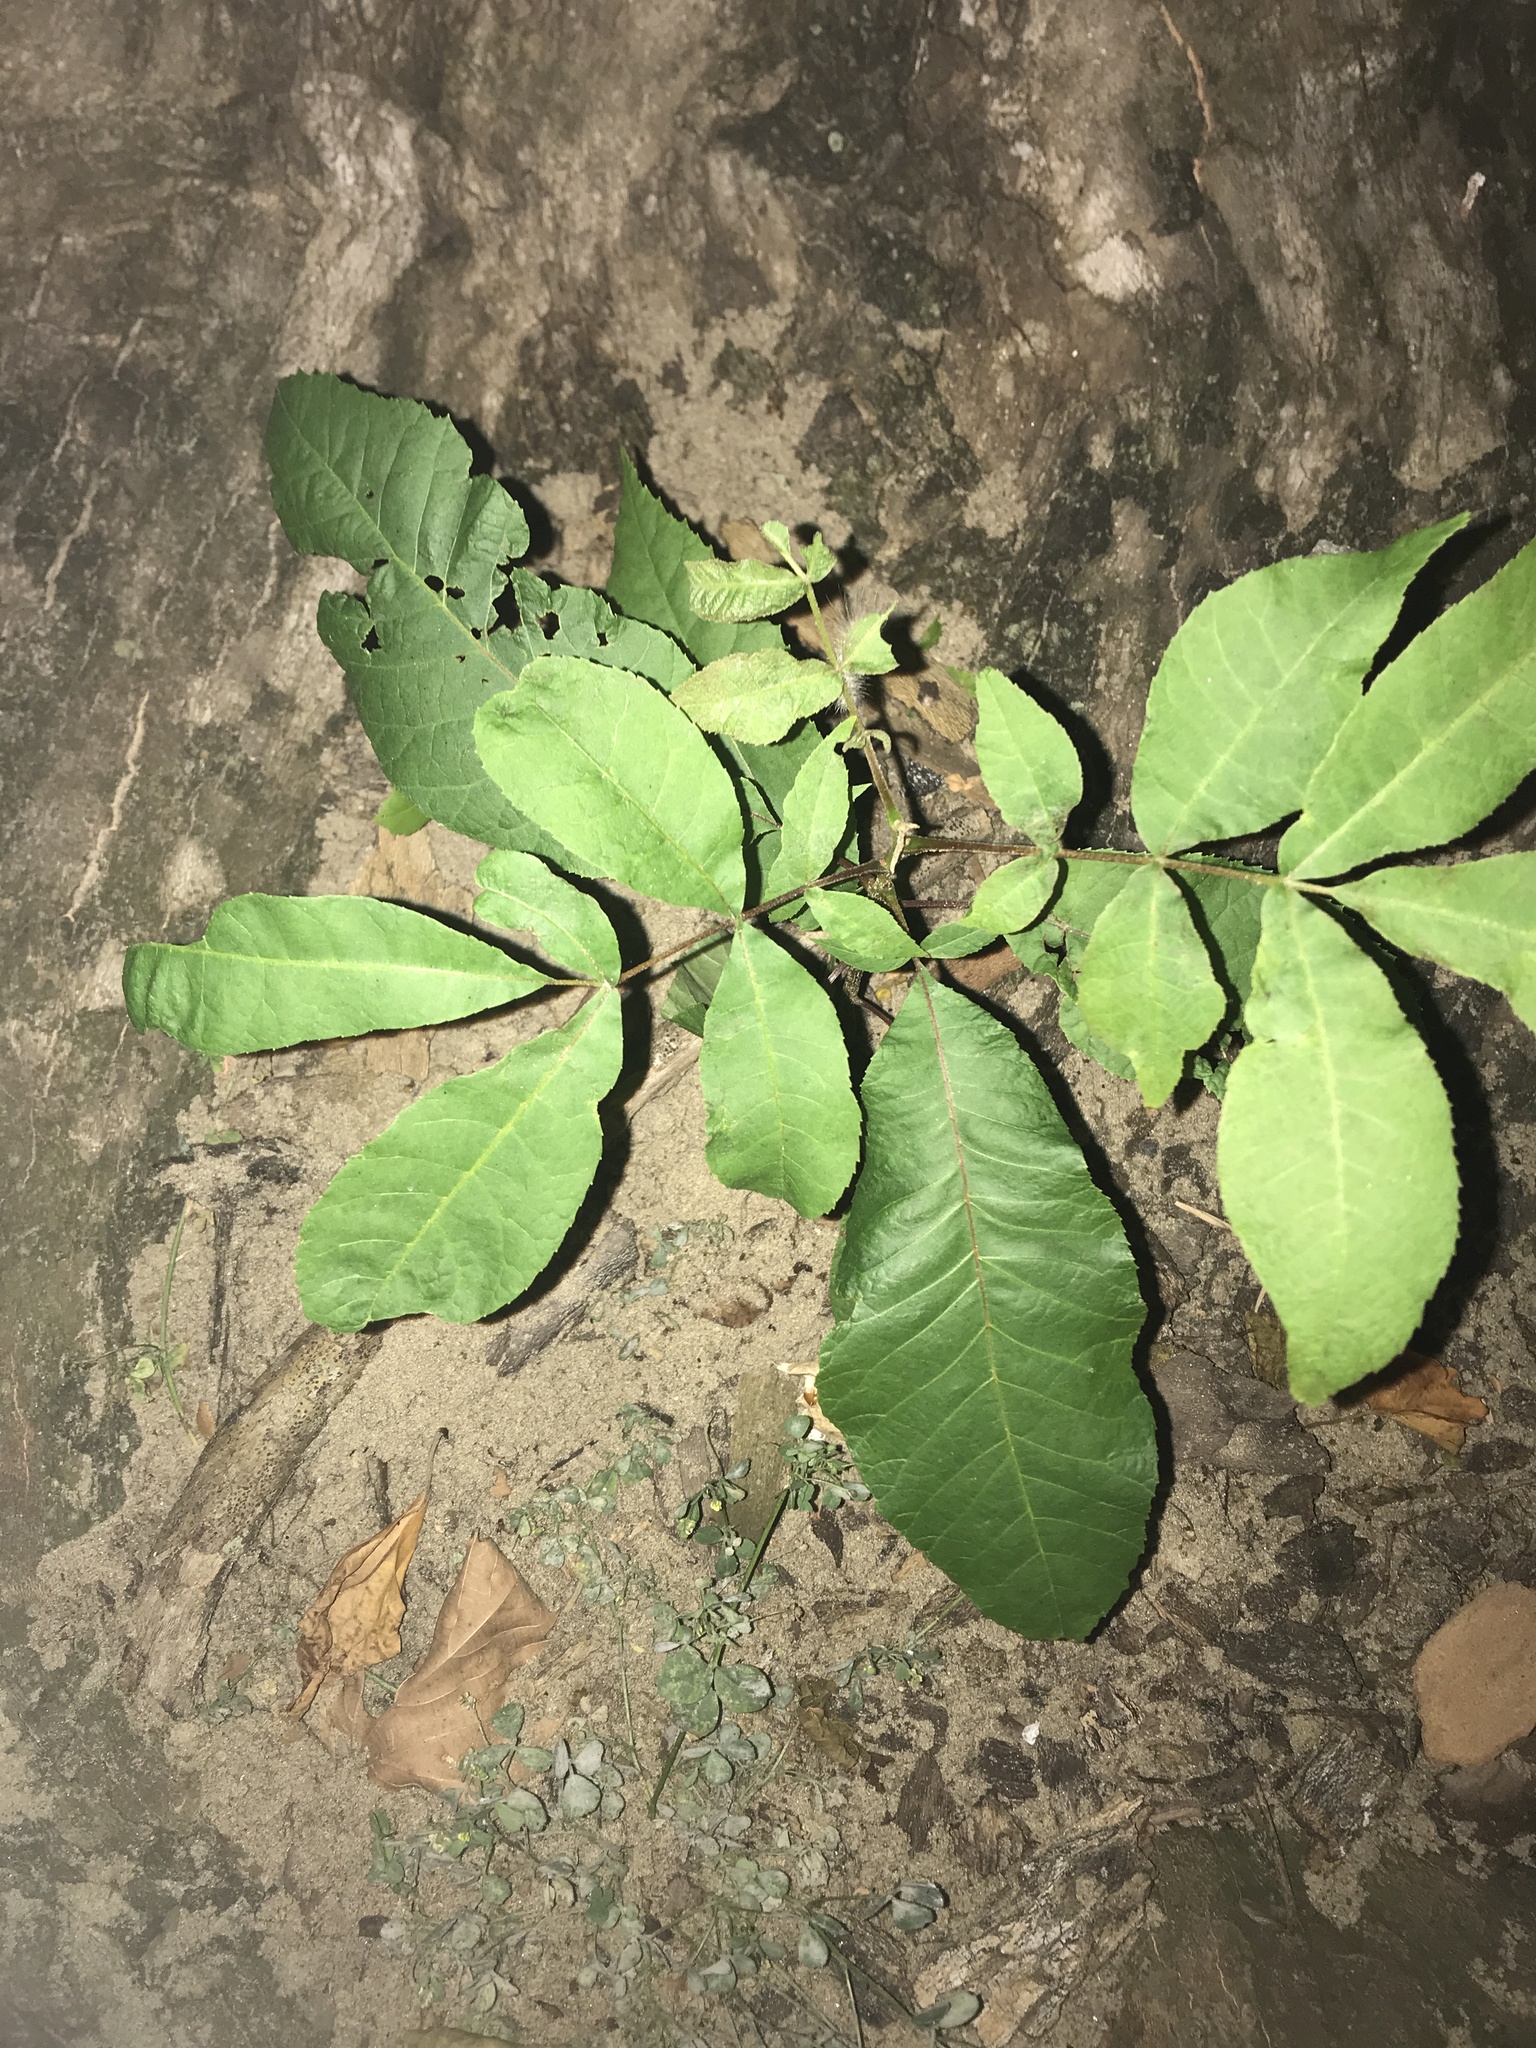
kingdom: Plantae
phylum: Tracheophyta
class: Magnoliopsida
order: Fagales
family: Juglandaceae
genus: Carya
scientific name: Carya illinoinensis
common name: Pecan
